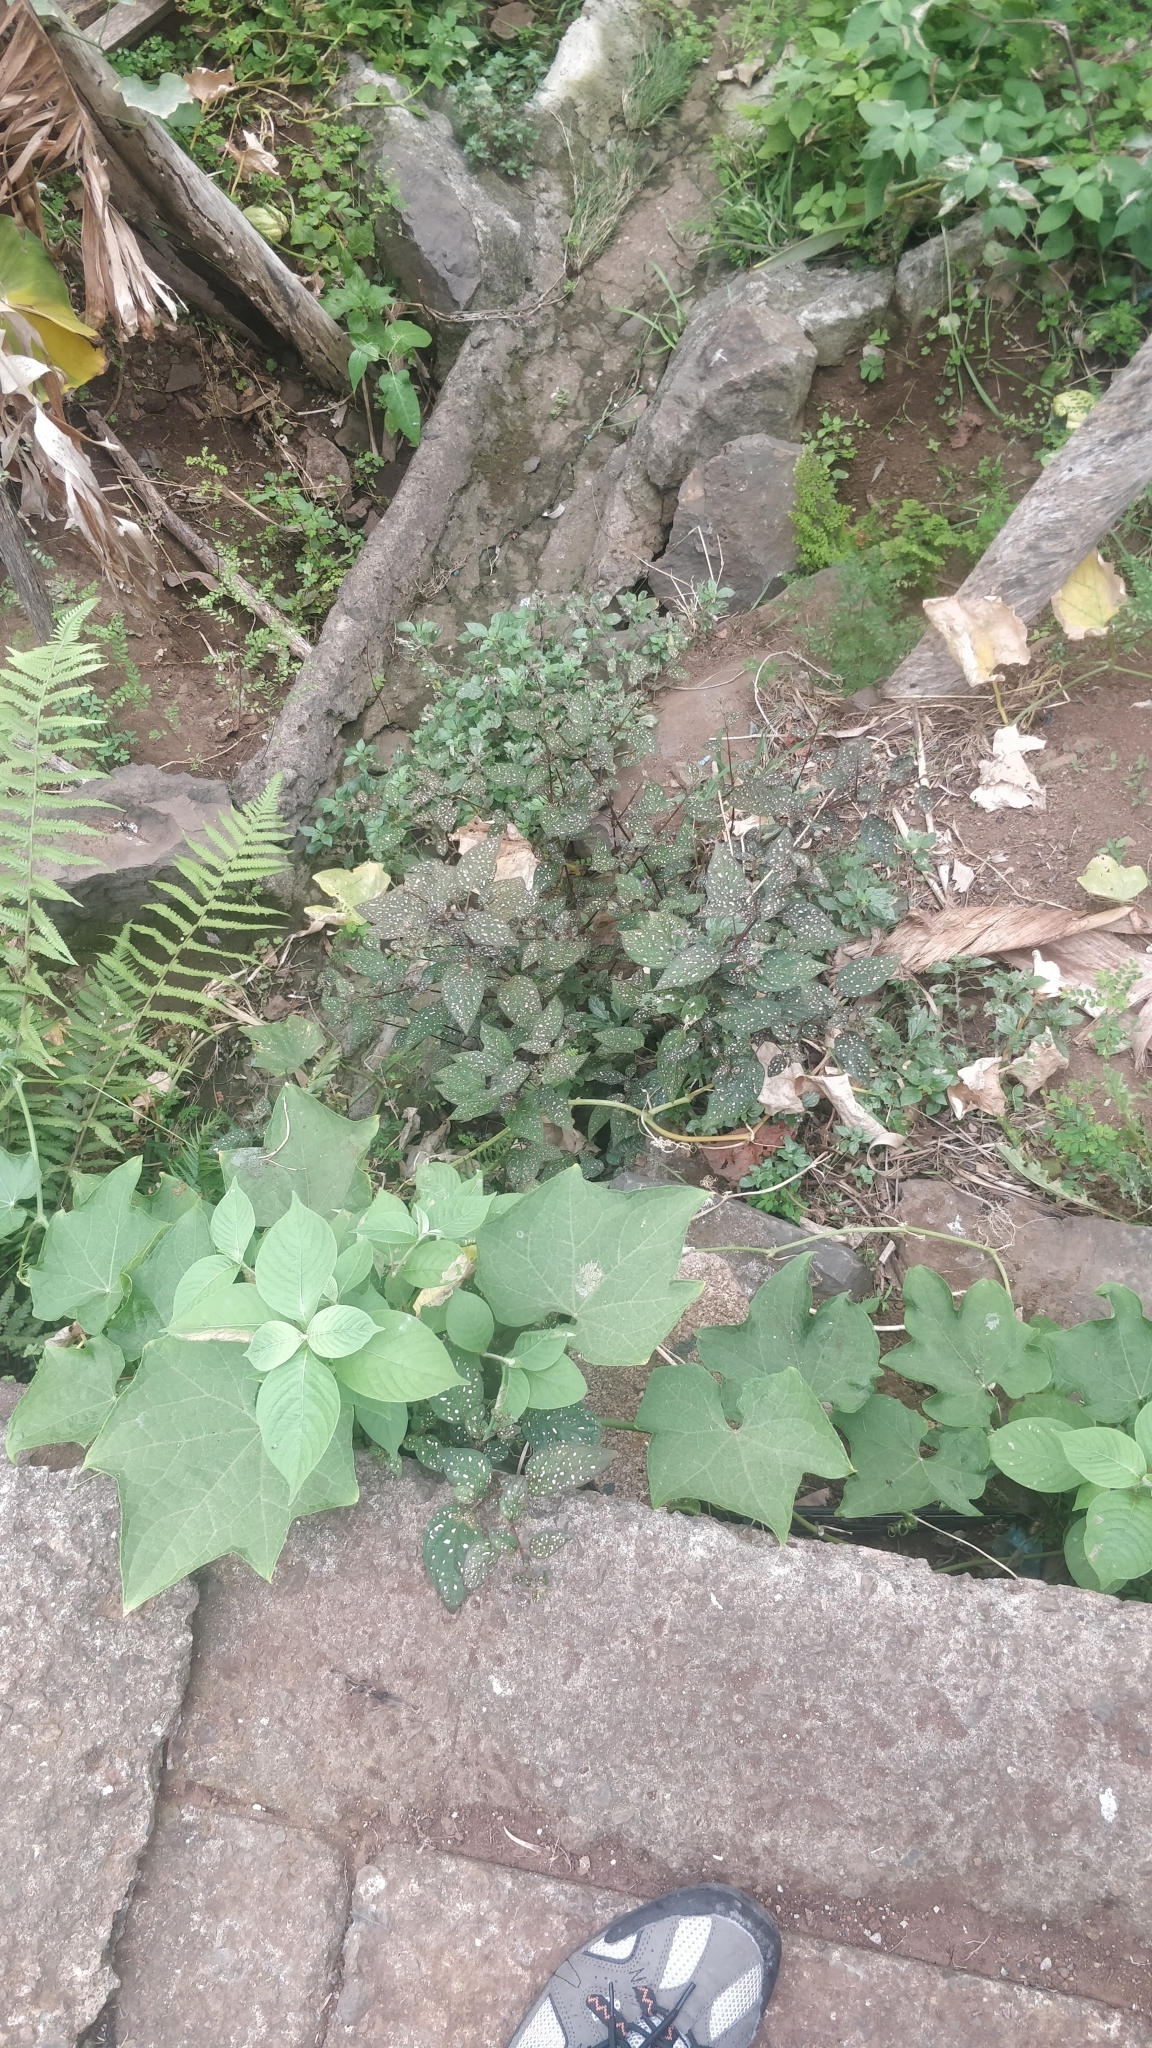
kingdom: Plantae
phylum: Tracheophyta
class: Magnoliopsida
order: Lamiales
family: Acanthaceae
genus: Hypoestes
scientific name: Hypoestes phyllostachya
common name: Polkadot-plant
